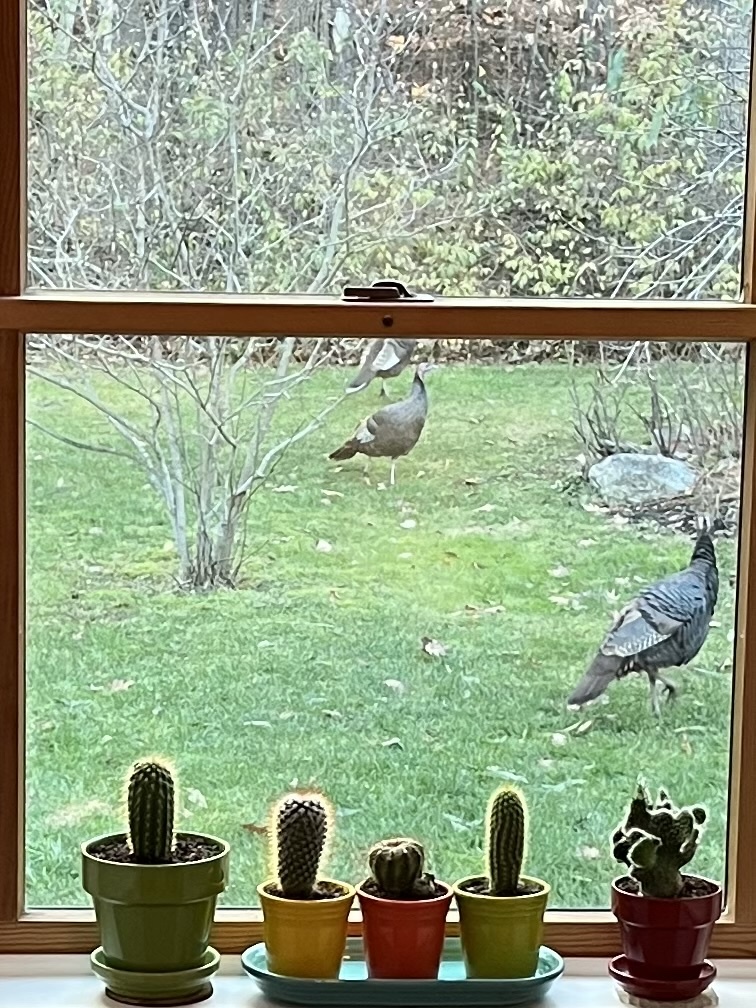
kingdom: Animalia
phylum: Chordata
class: Aves
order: Galliformes
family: Phasianidae
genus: Meleagris
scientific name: Meleagris gallopavo
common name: Wild turkey
